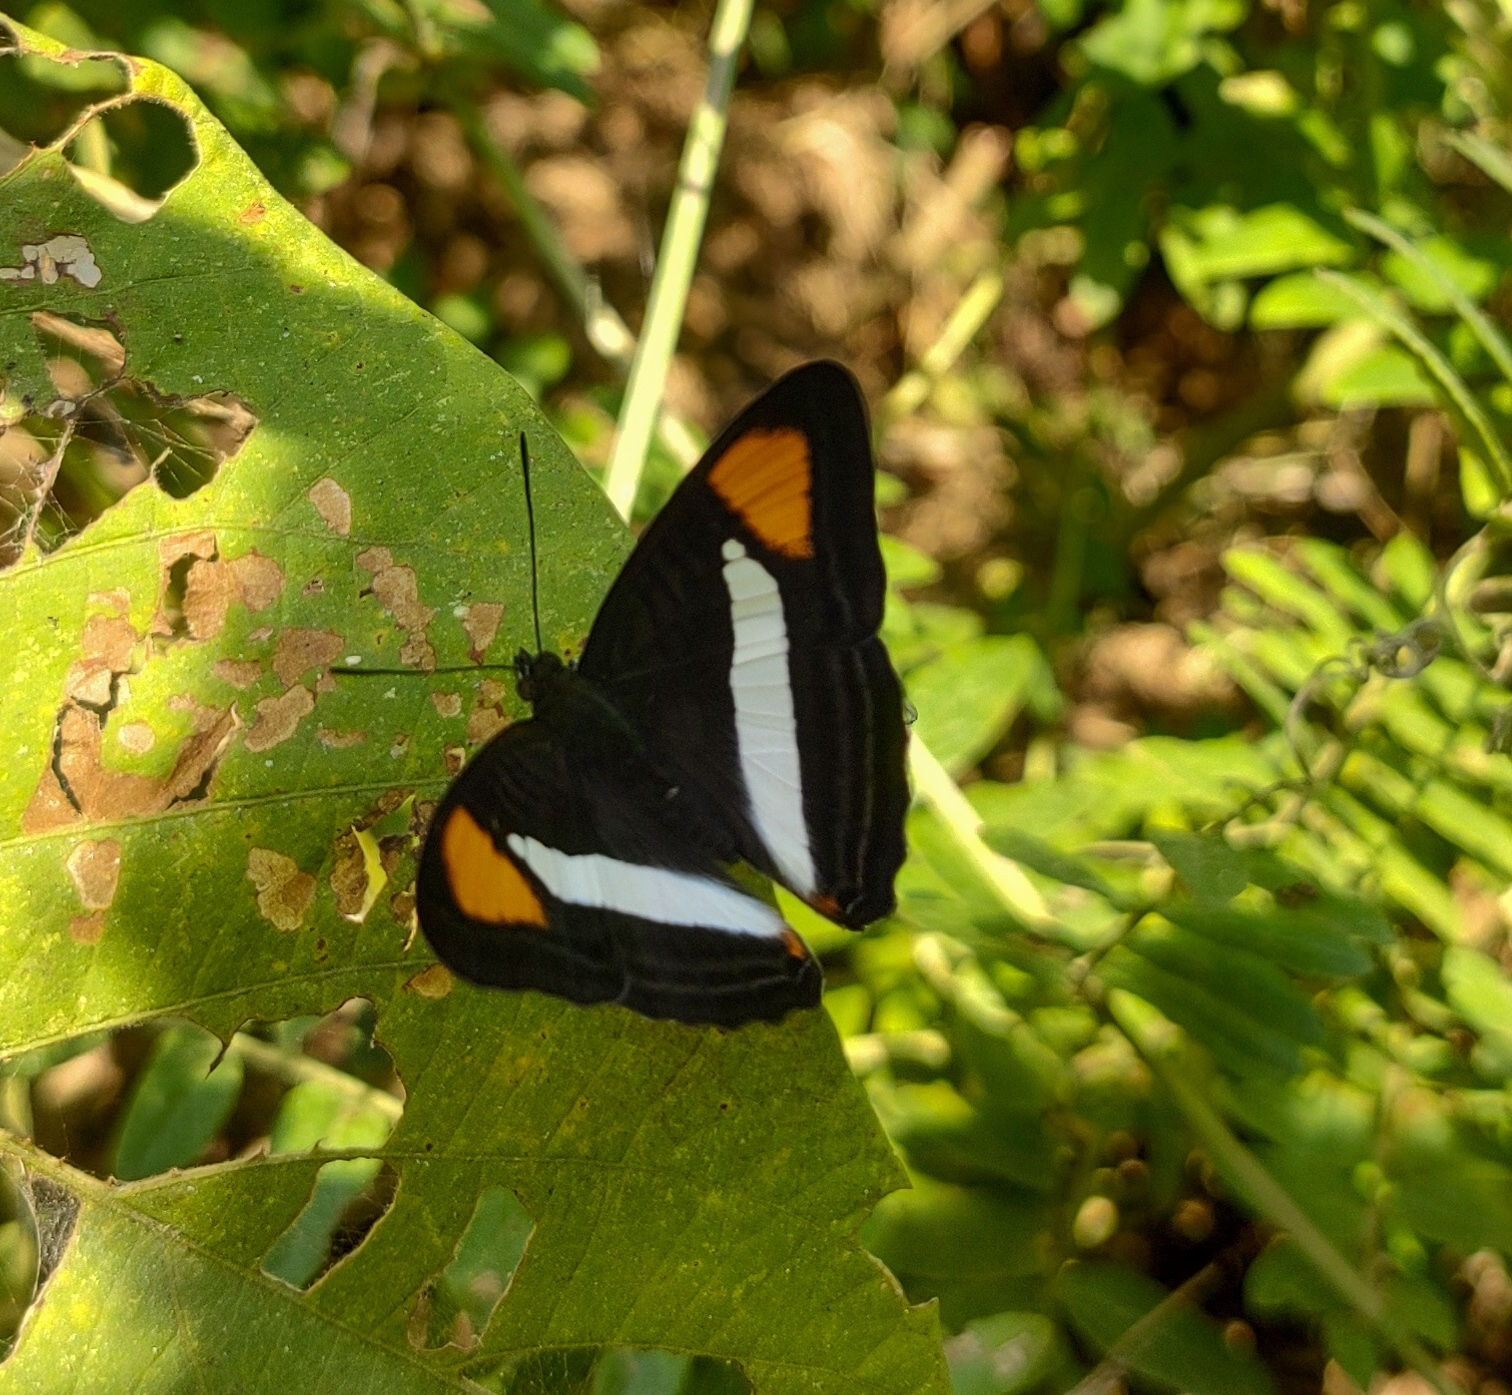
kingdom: Animalia
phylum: Arthropoda
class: Insecta
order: Lepidoptera
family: Nymphalidae
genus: Limenitis
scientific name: Limenitis gavina
